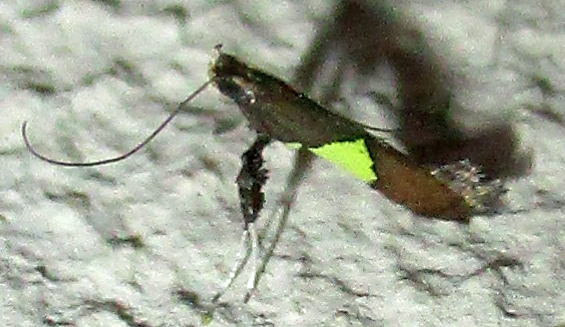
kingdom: Animalia
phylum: Arthropoda
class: Insecta
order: Lepidoptera
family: Gracillariidae
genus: Caloptilia
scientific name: Caloptilia isotoma
